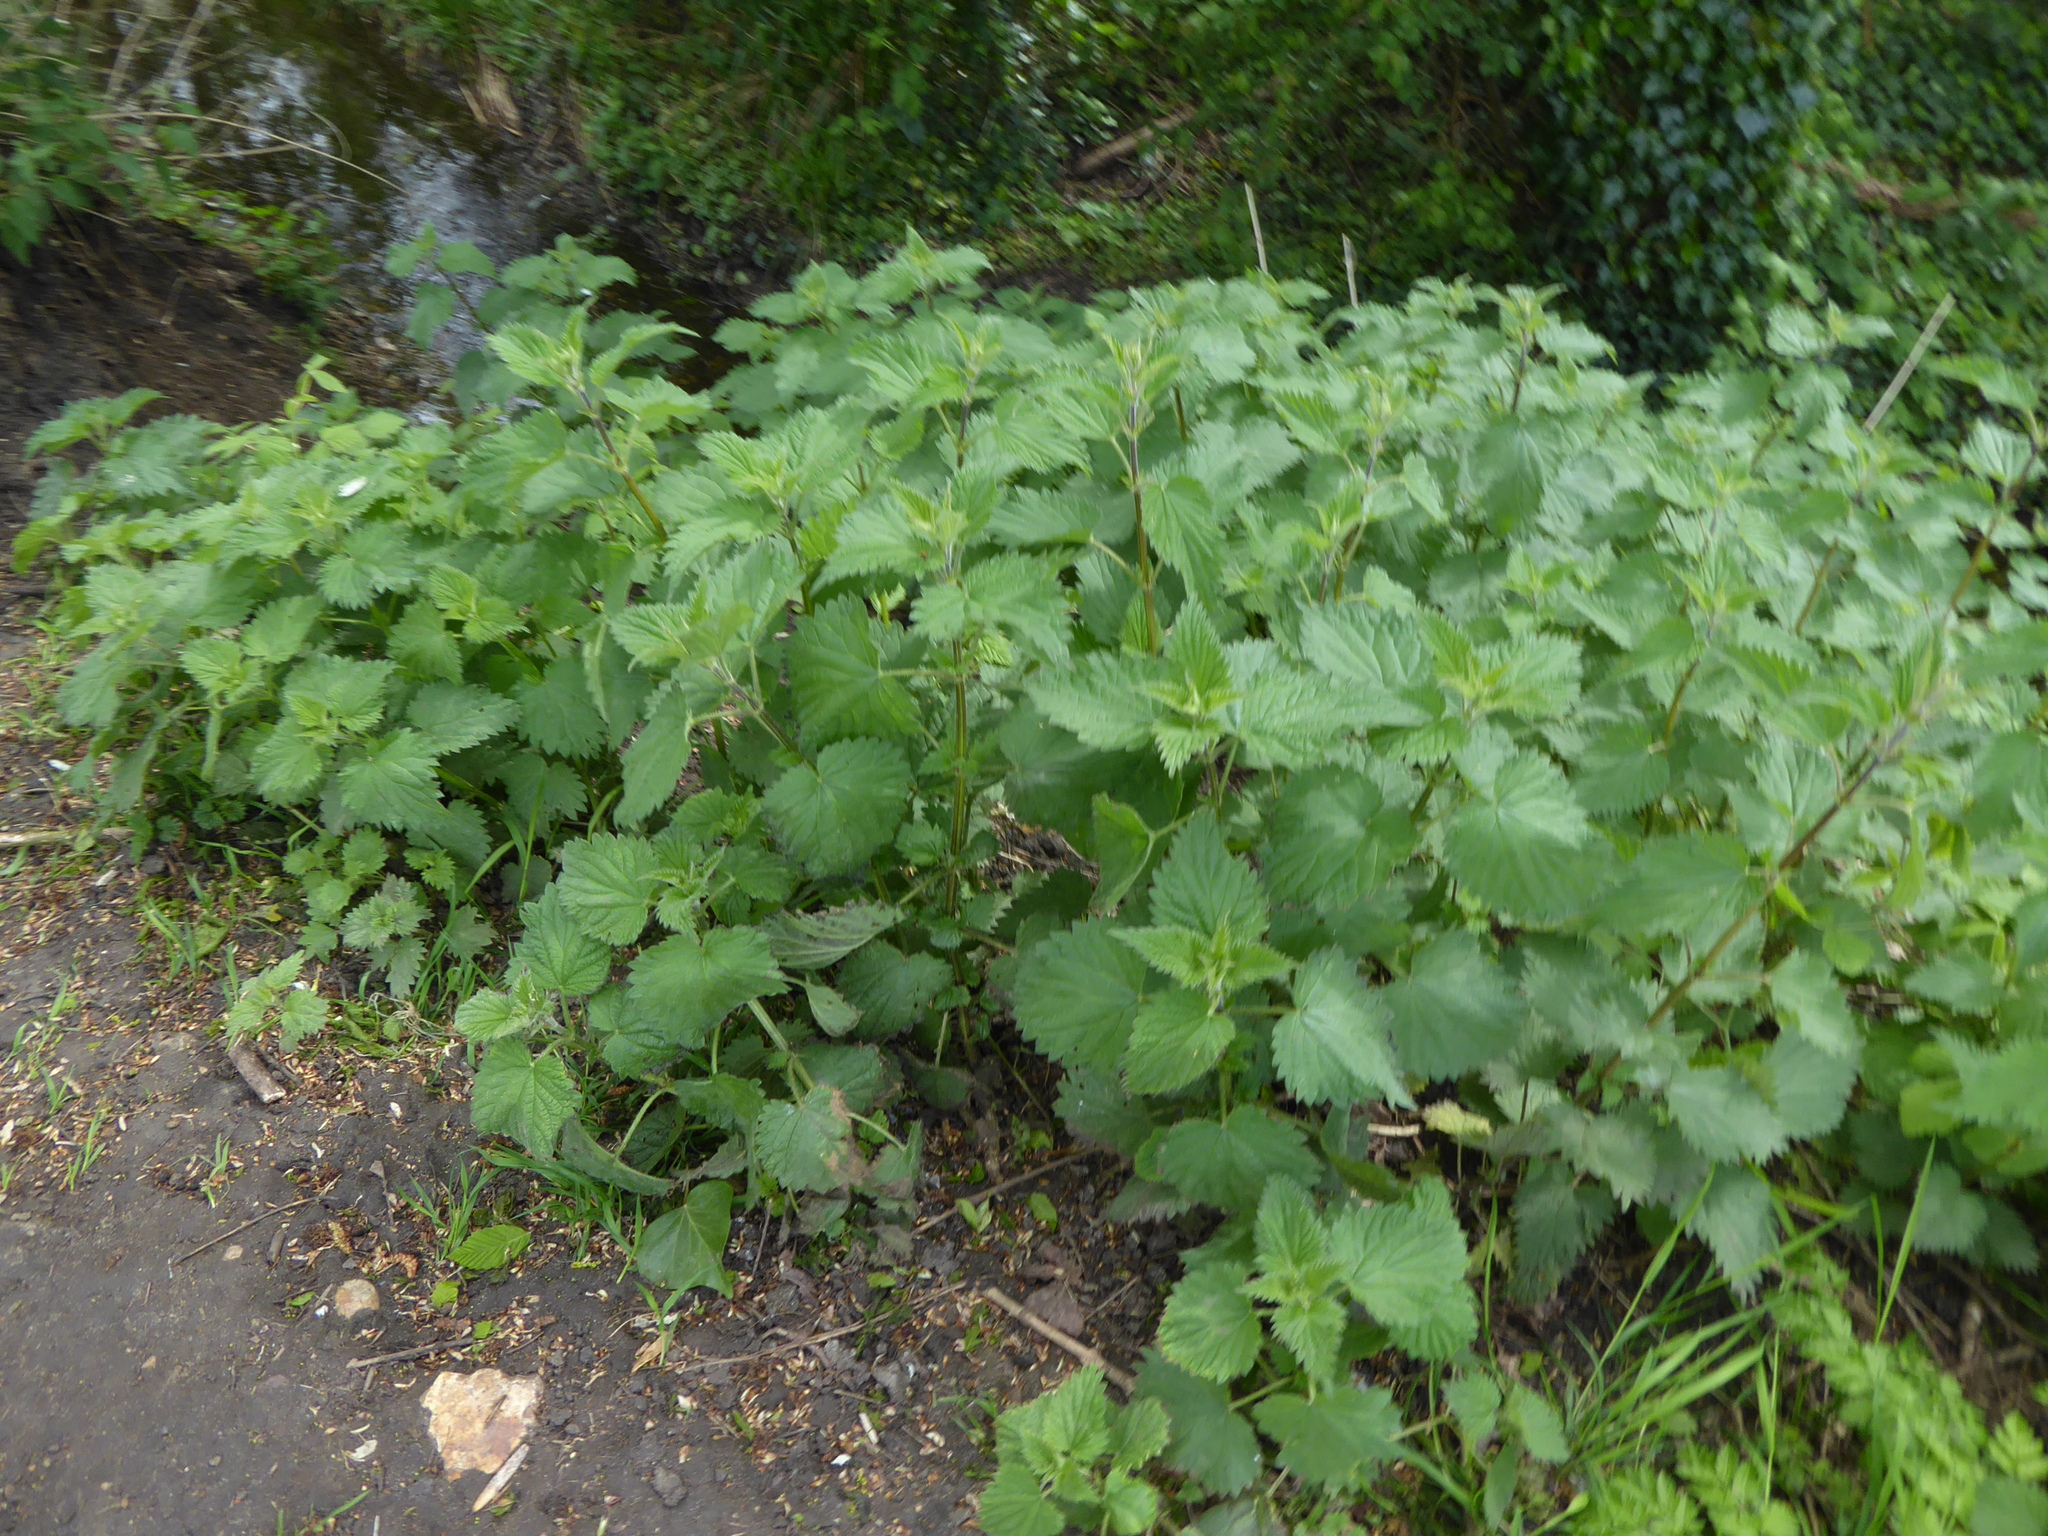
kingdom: Plantae
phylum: Tracheophyta
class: Magnoliopsida
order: Rosales
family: Urticaceae
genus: Urtica
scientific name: Urtica dioica
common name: Common nettle
